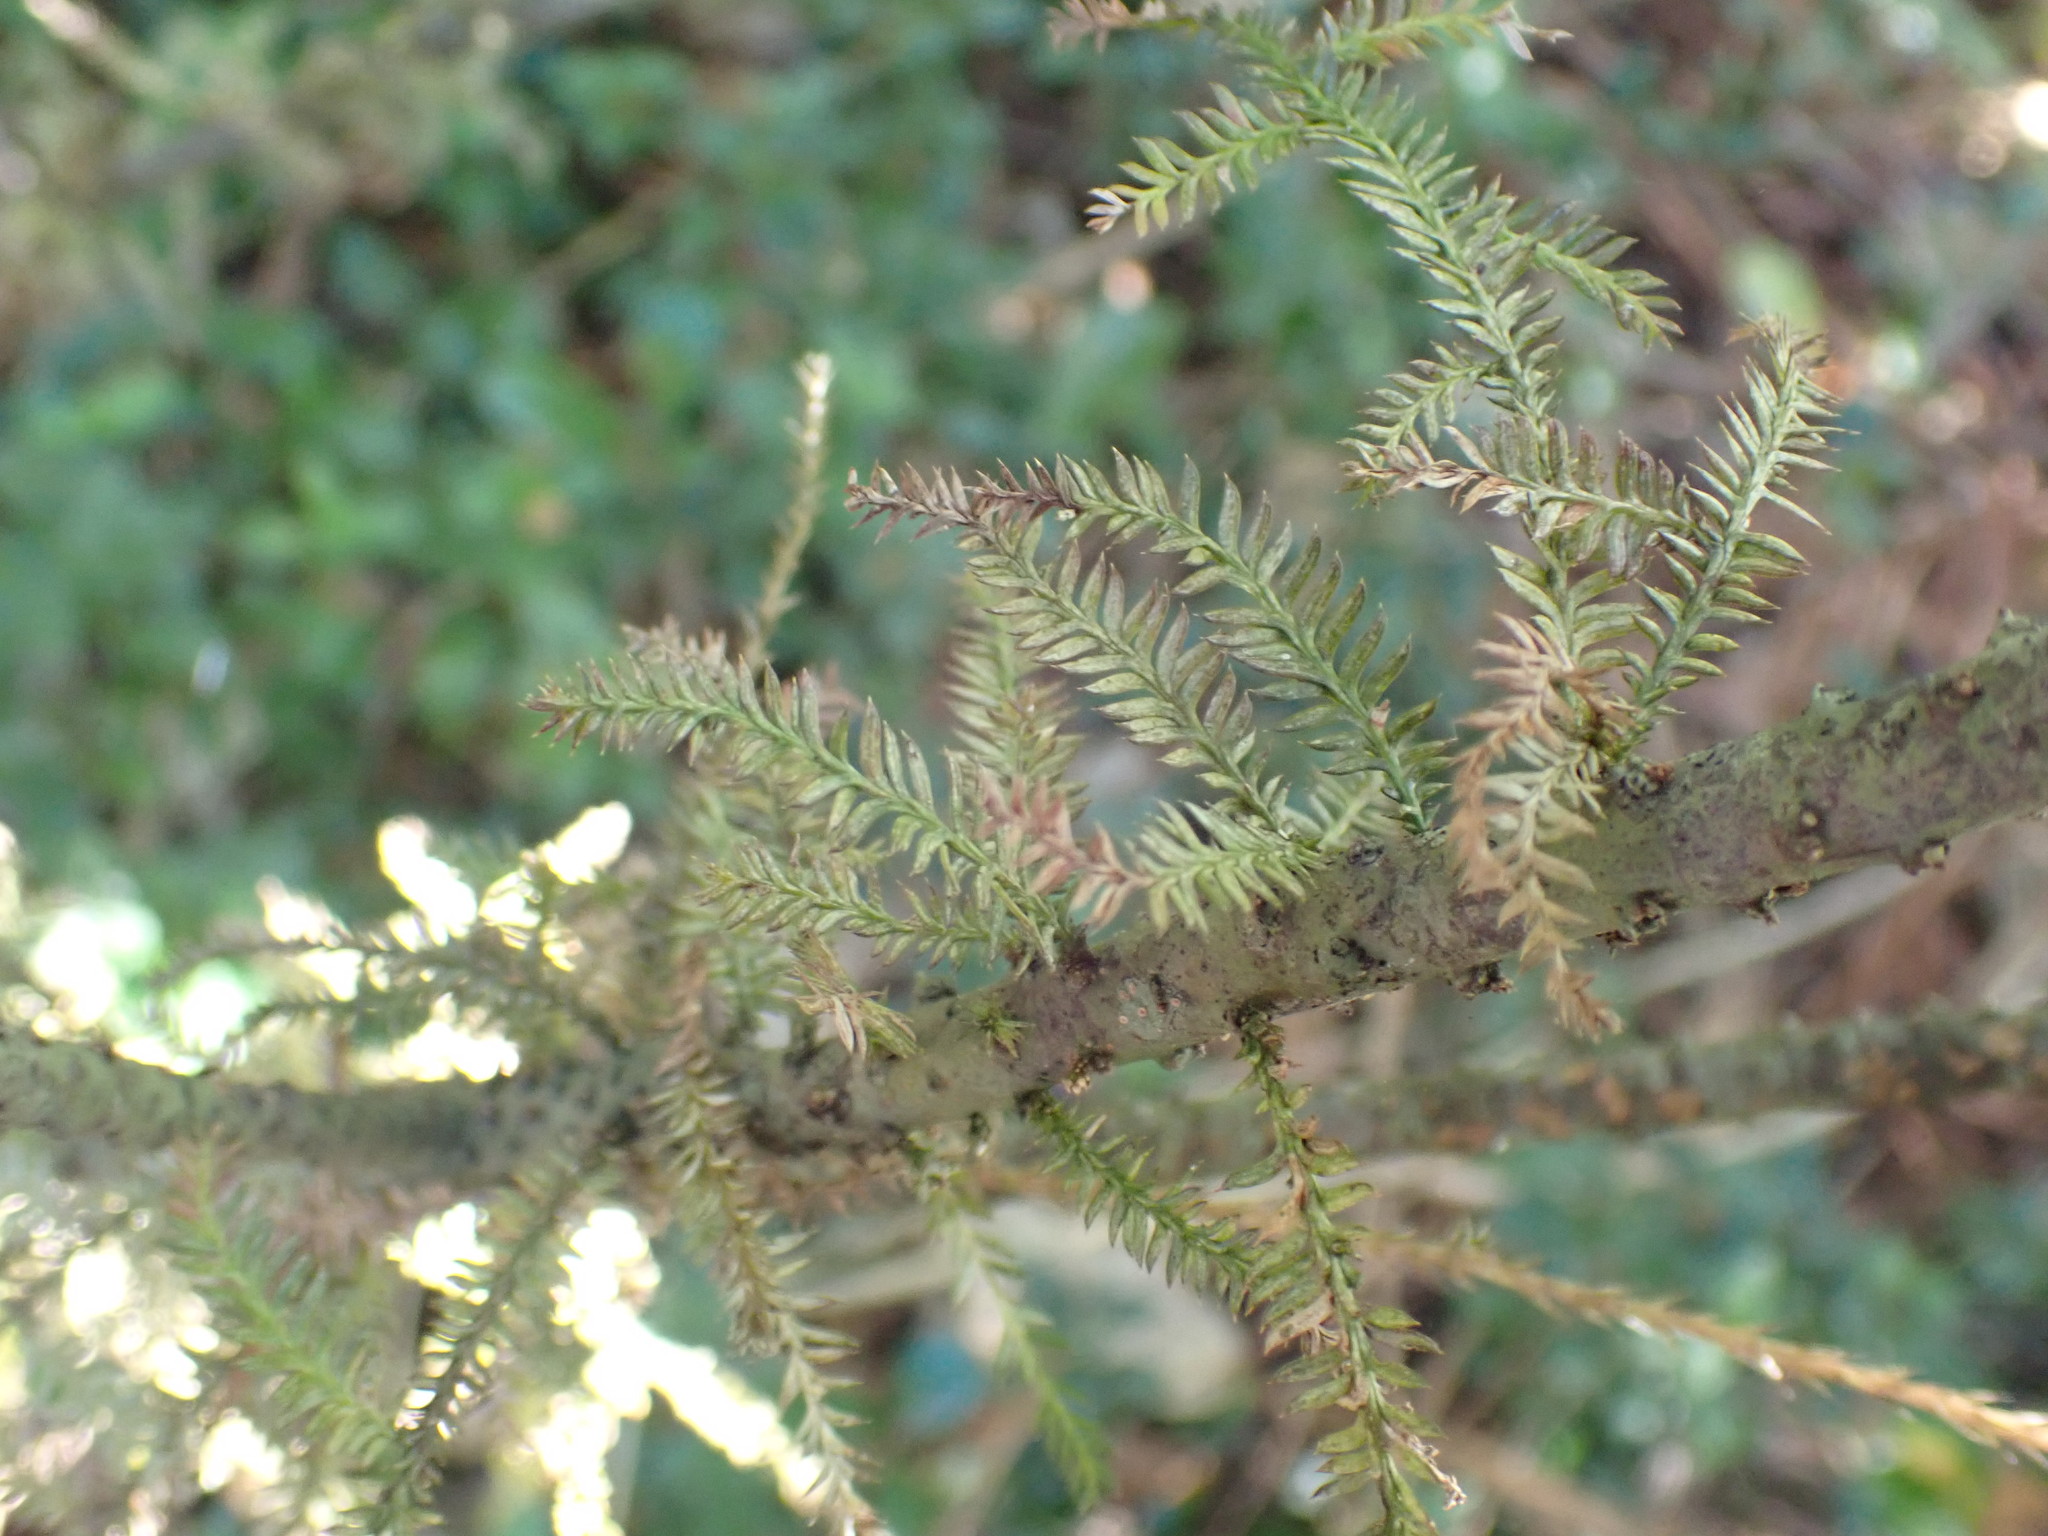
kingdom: Plantae
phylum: Tracheophyta
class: Pinopsida
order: Pinales
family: Podocarpaceae
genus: Dacrycarpus
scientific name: Dacrycarpus dacrydioides
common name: White pine
